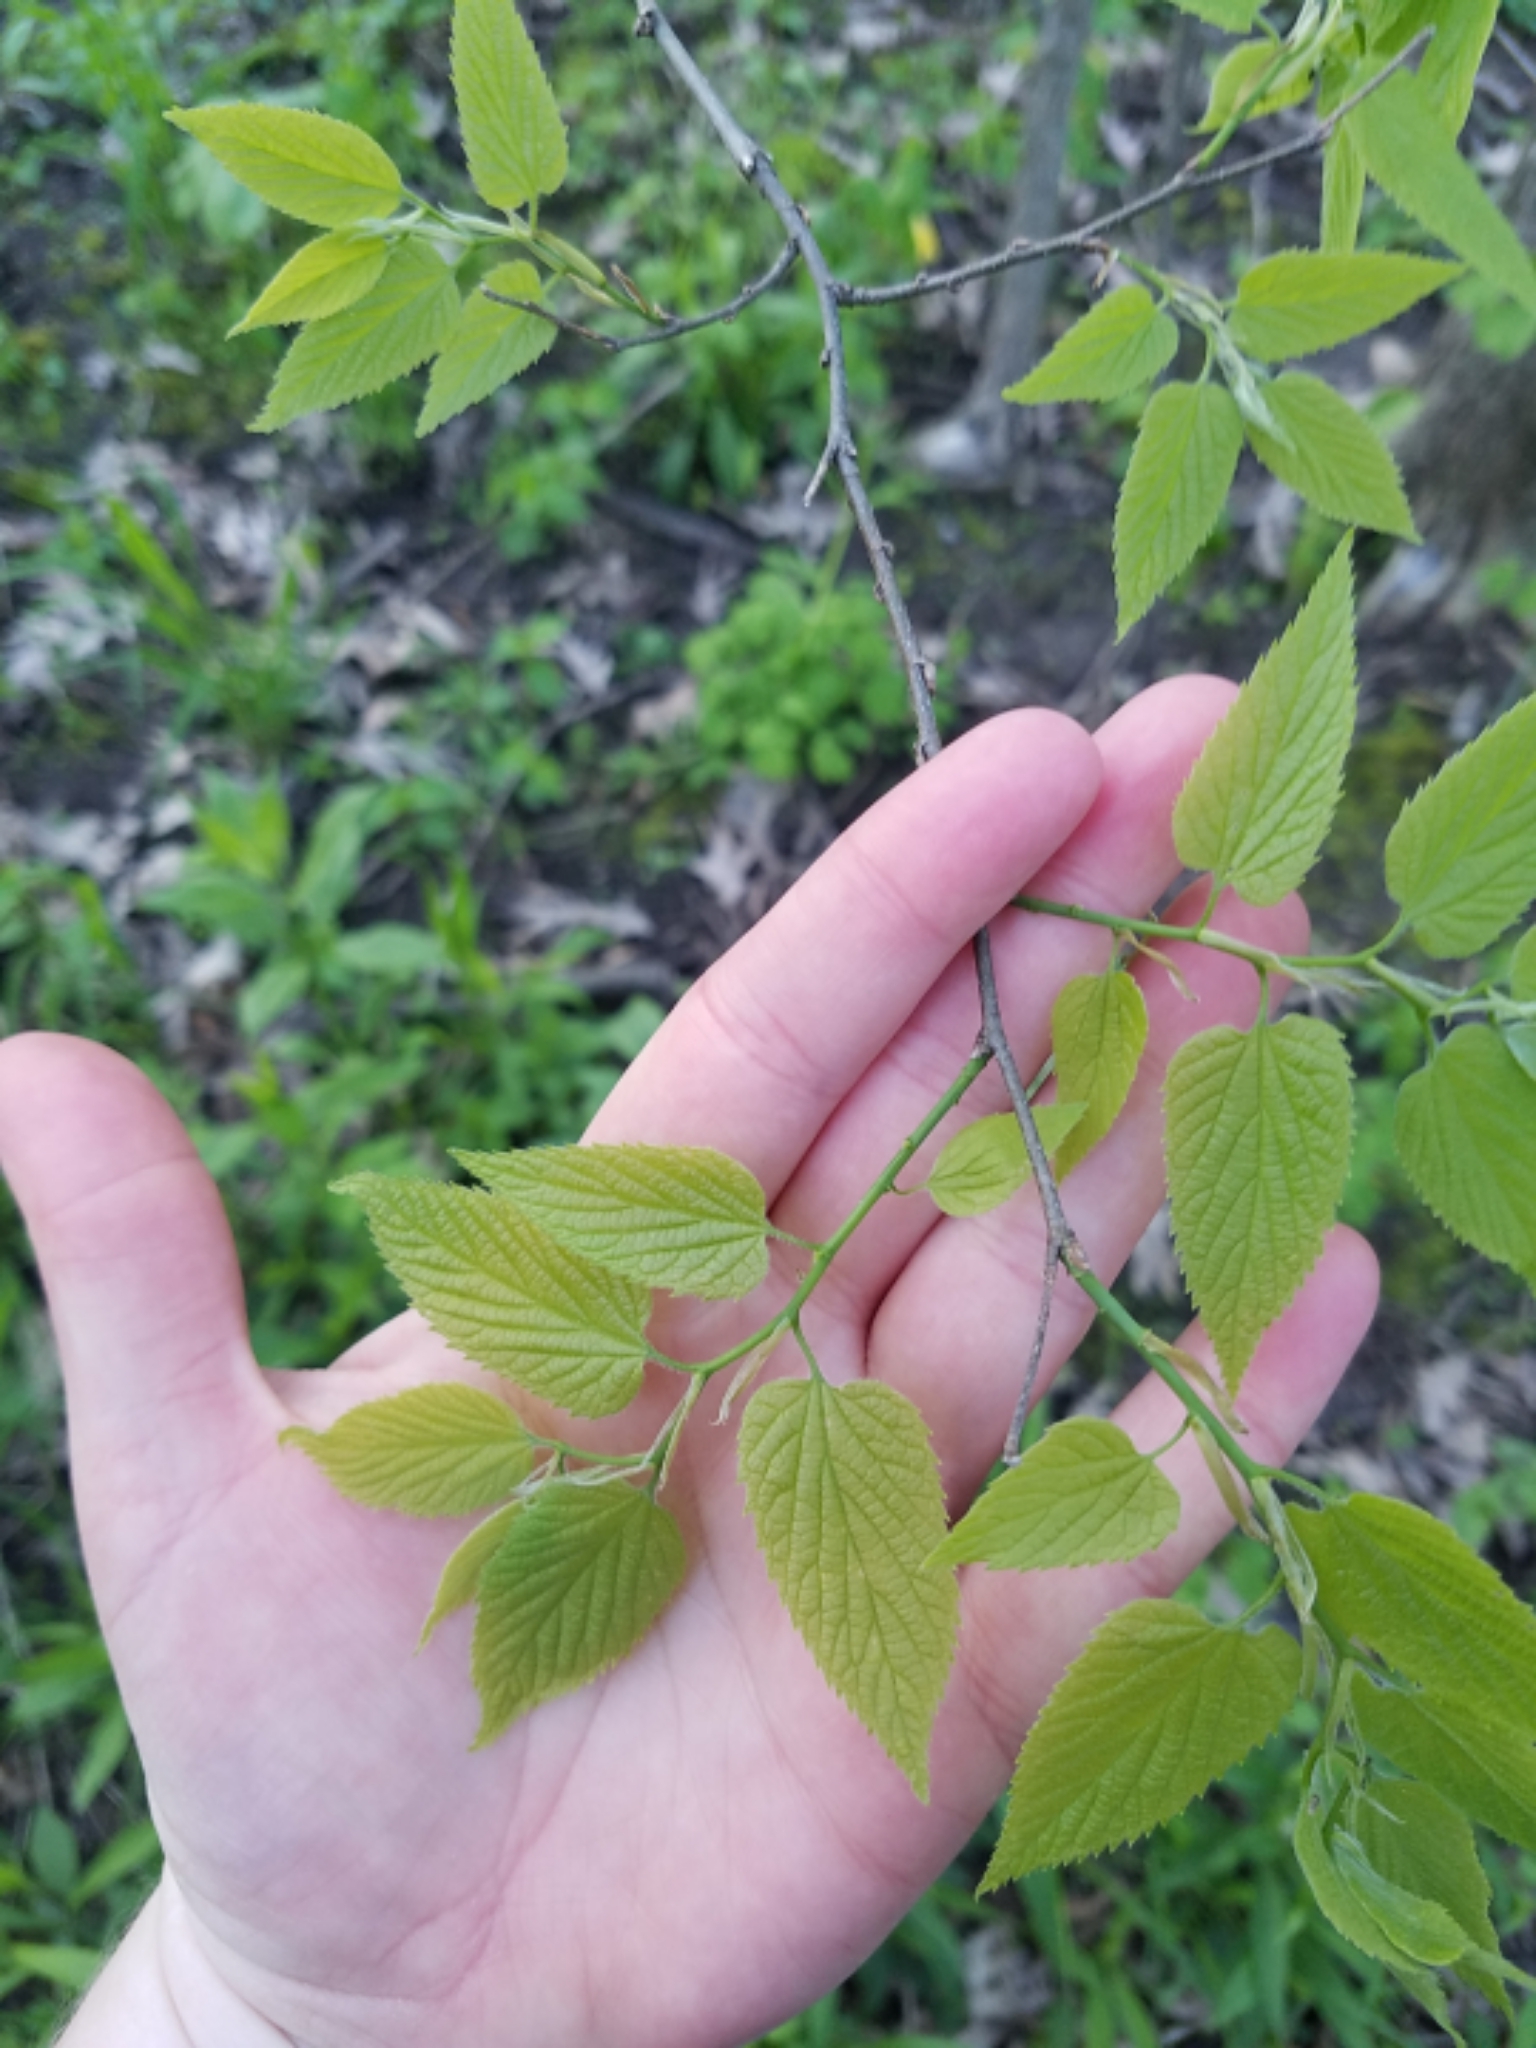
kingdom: Plantae
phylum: Tracheophyta
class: Magnoliopsida
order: Rosales
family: Cannabaceae
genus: Celtis
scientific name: Celtis occidentalis
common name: Common hackberry
